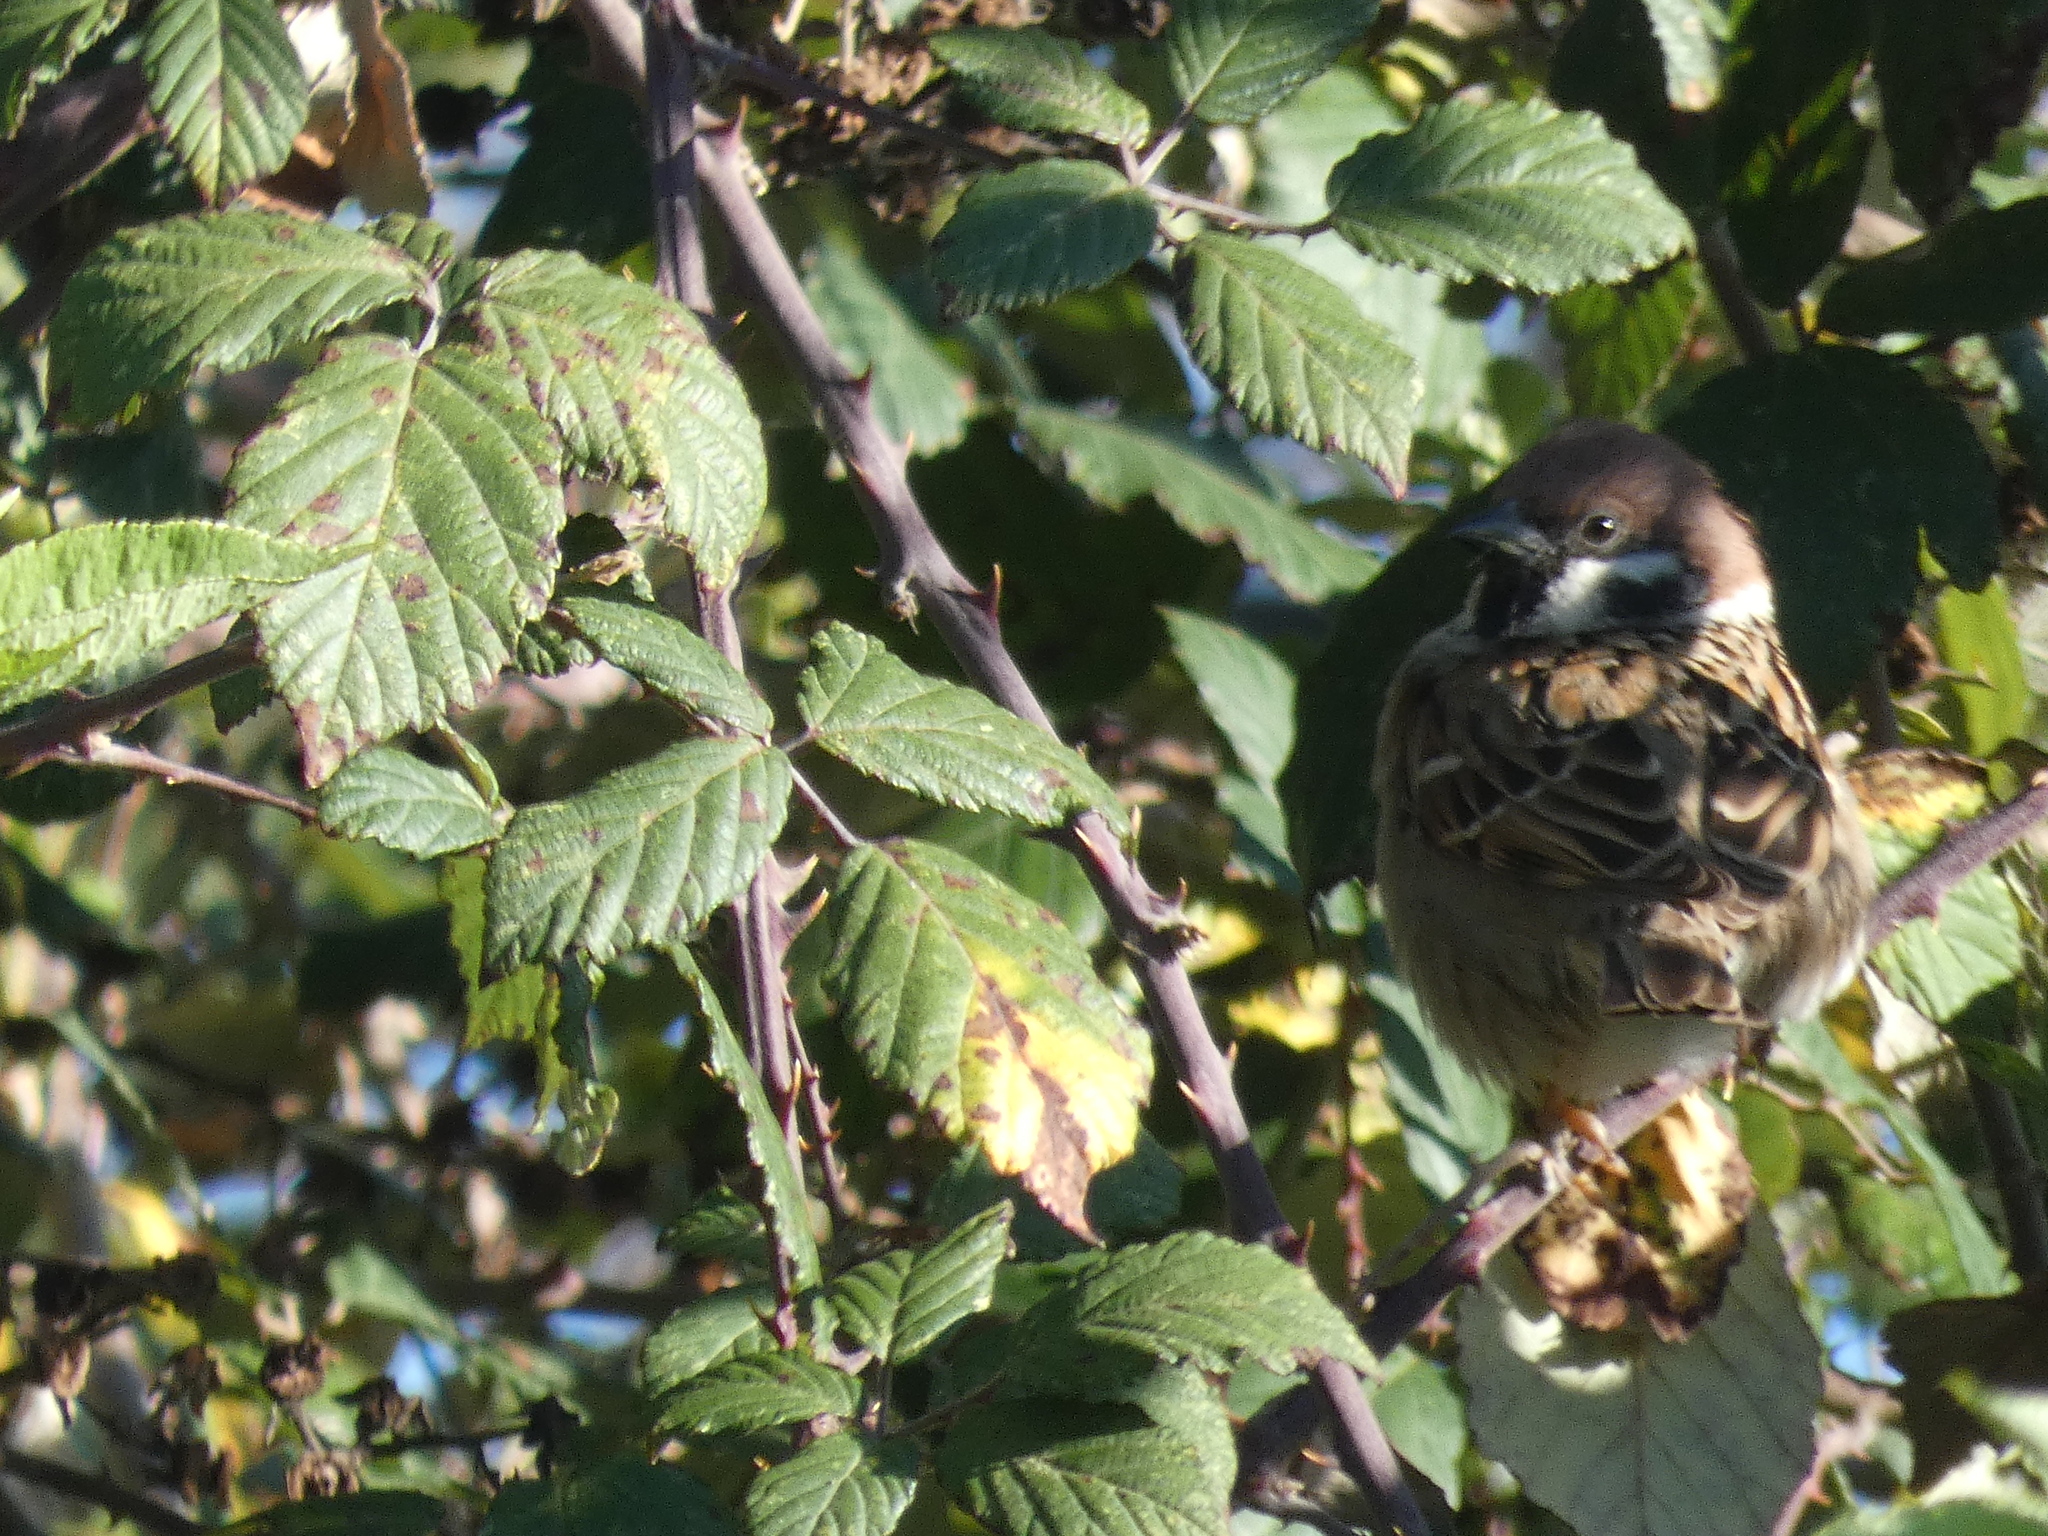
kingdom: Animalia
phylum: Chordata
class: Aves
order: Passeriformes
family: Passeridae
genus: Passer
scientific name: Passer montanus
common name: Eurasian tree sparrow
